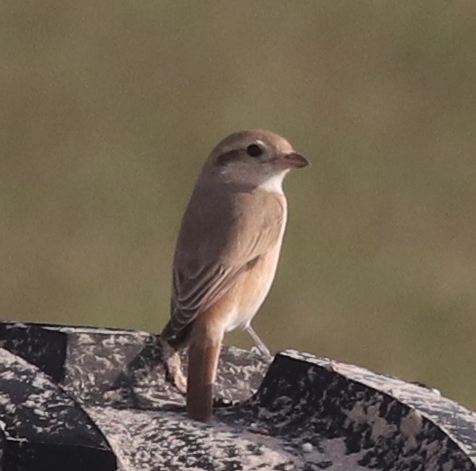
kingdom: Animalia
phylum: Chordata
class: Aves
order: Passeriformes
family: Laniidae
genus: Lanius
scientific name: Lanius isabellinus
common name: Isabelline shrike
